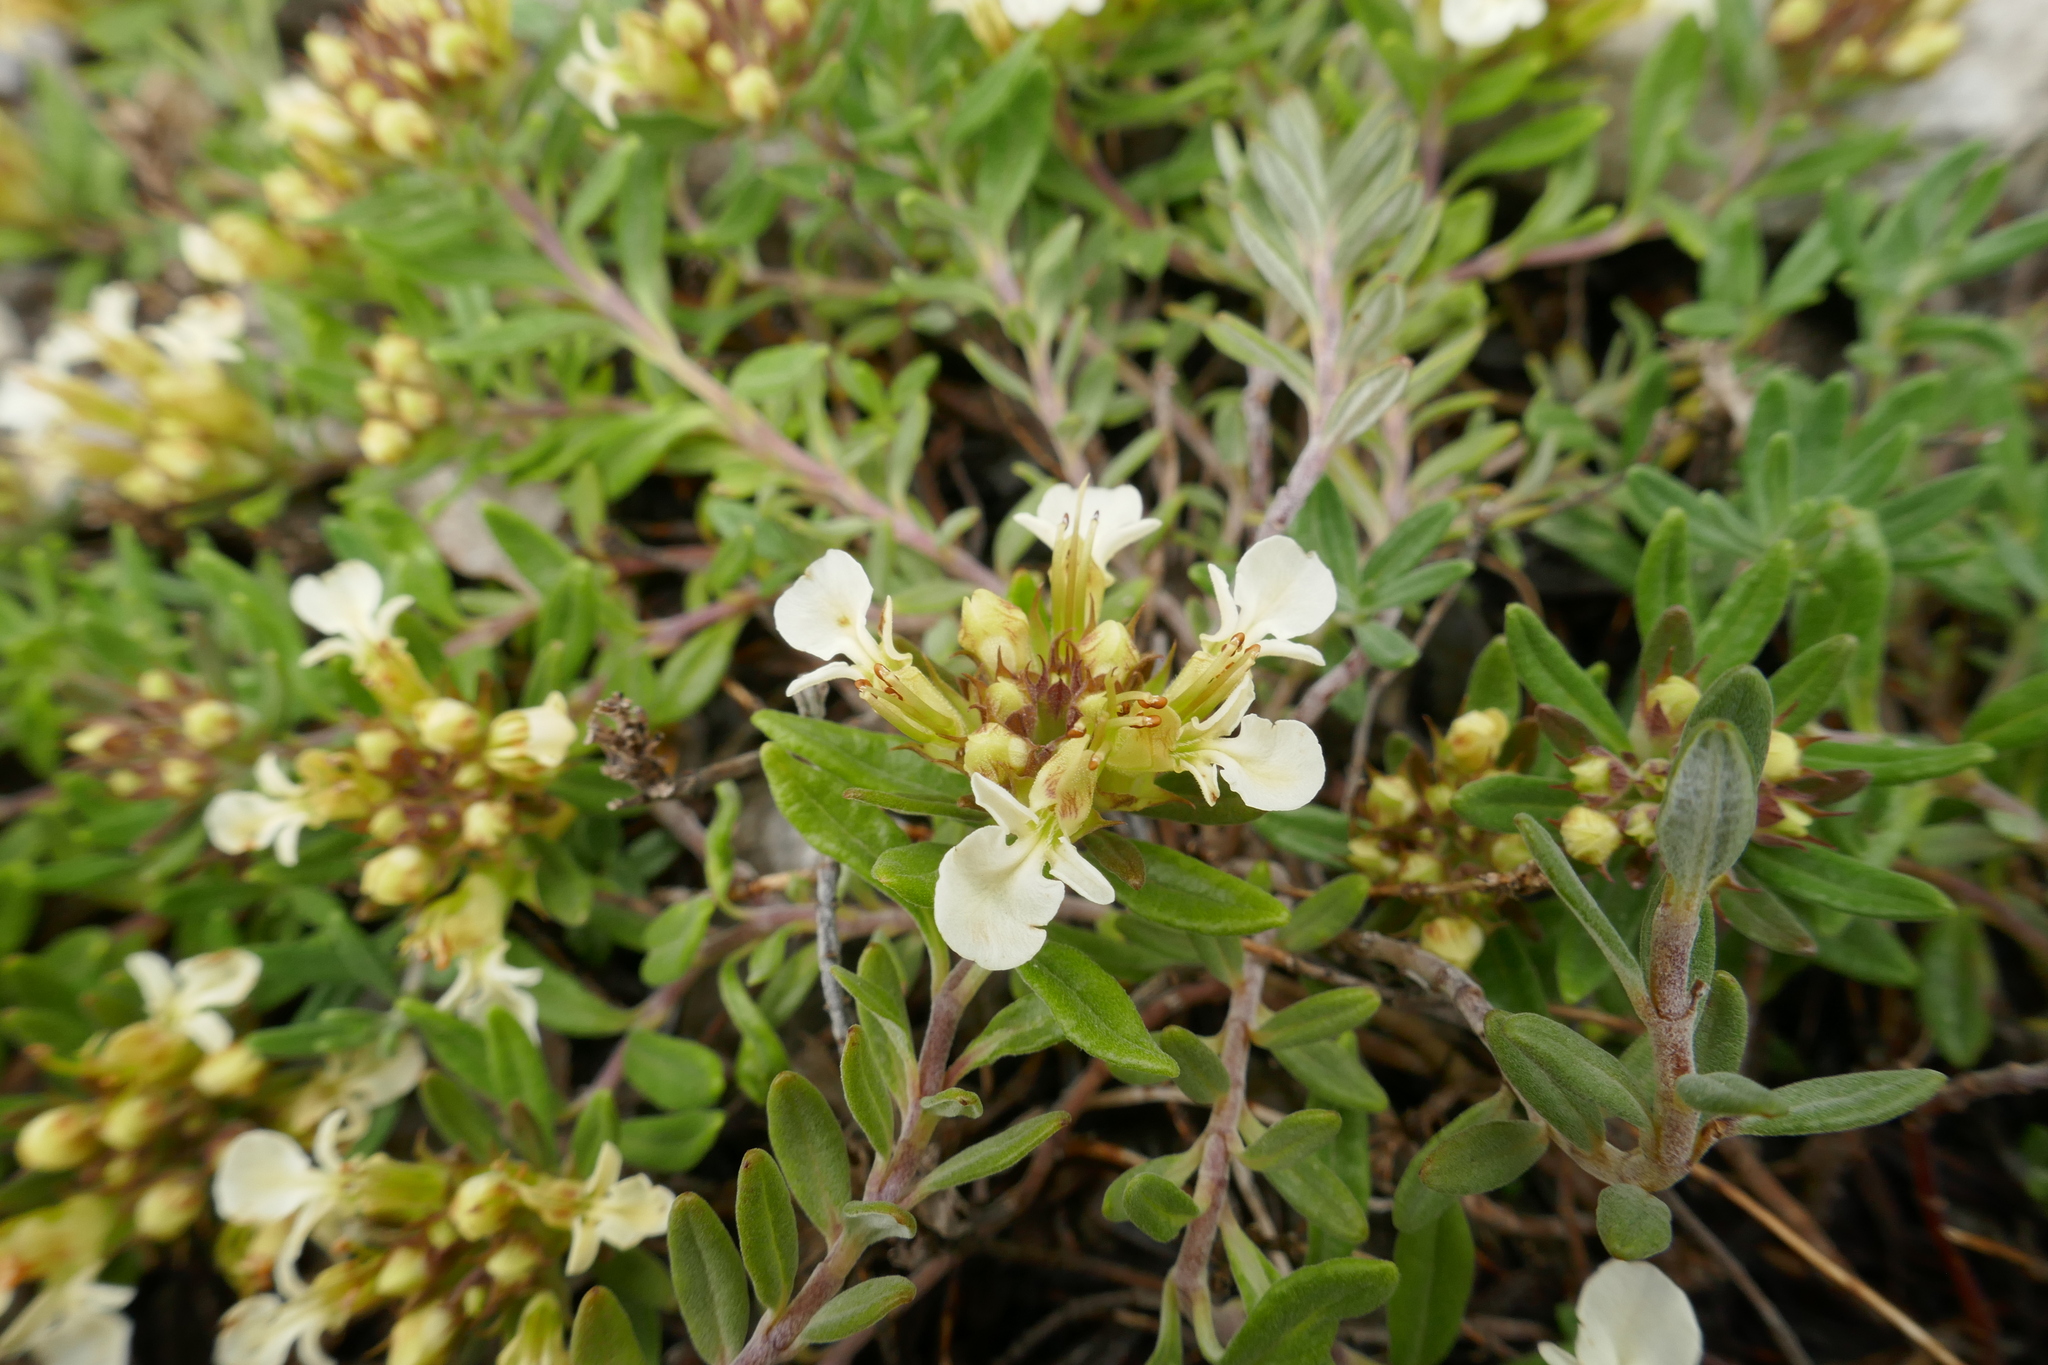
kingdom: Plantae
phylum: Tracheophyta
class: Magnoliopsida
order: Lamiales
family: Lamiaceae
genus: Teucrium
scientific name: Teucrium montanum
